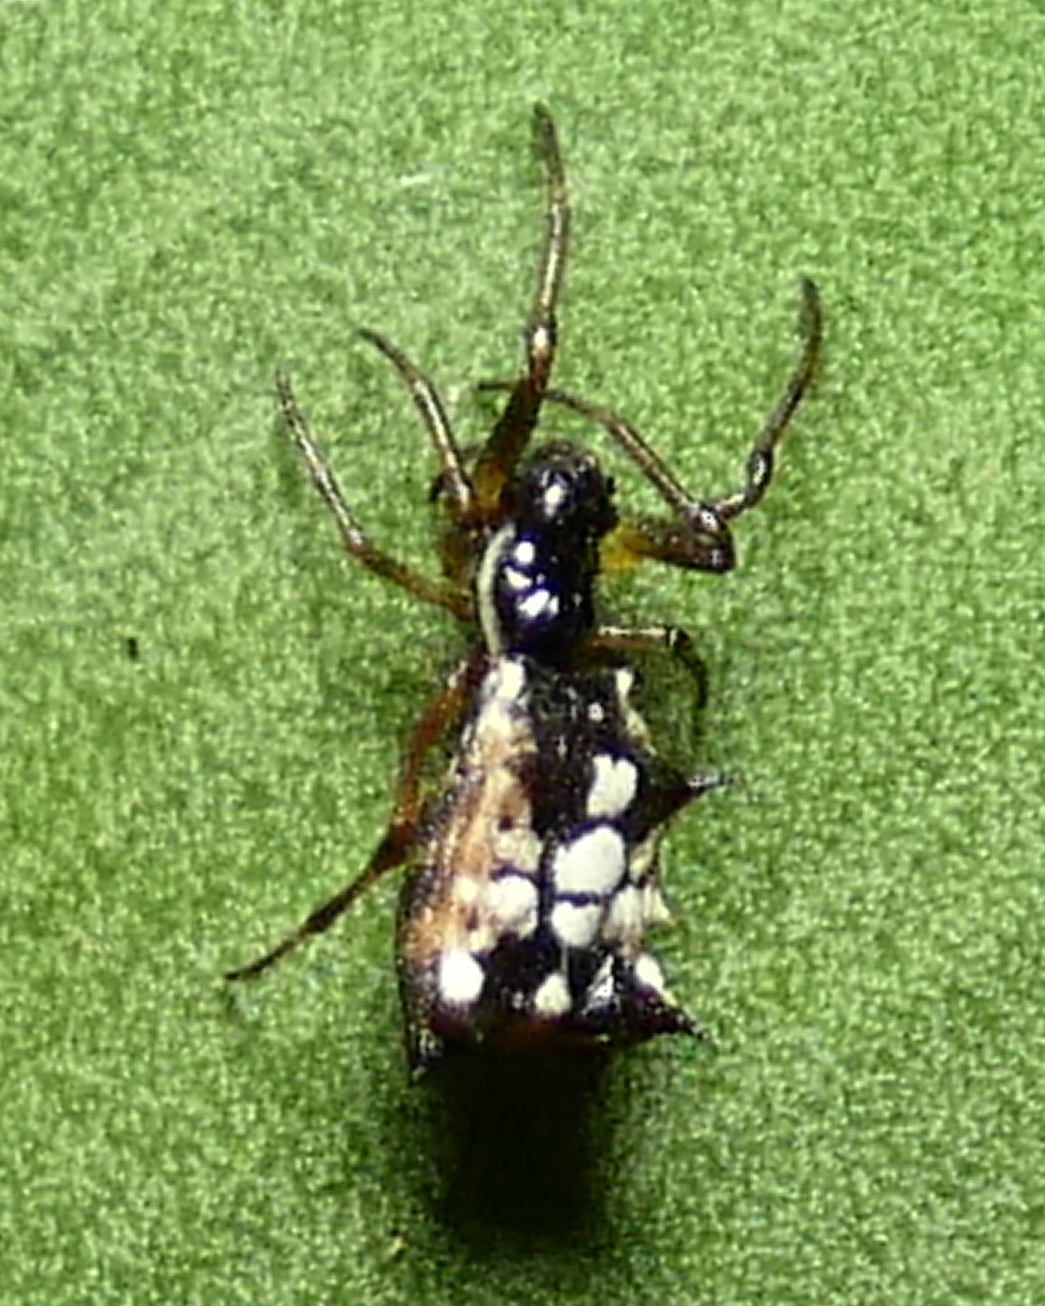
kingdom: Animalia
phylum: Arthropoda
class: Arachnida
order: Araneae
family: Araneidae
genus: Micrathena
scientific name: Micrathena picta
